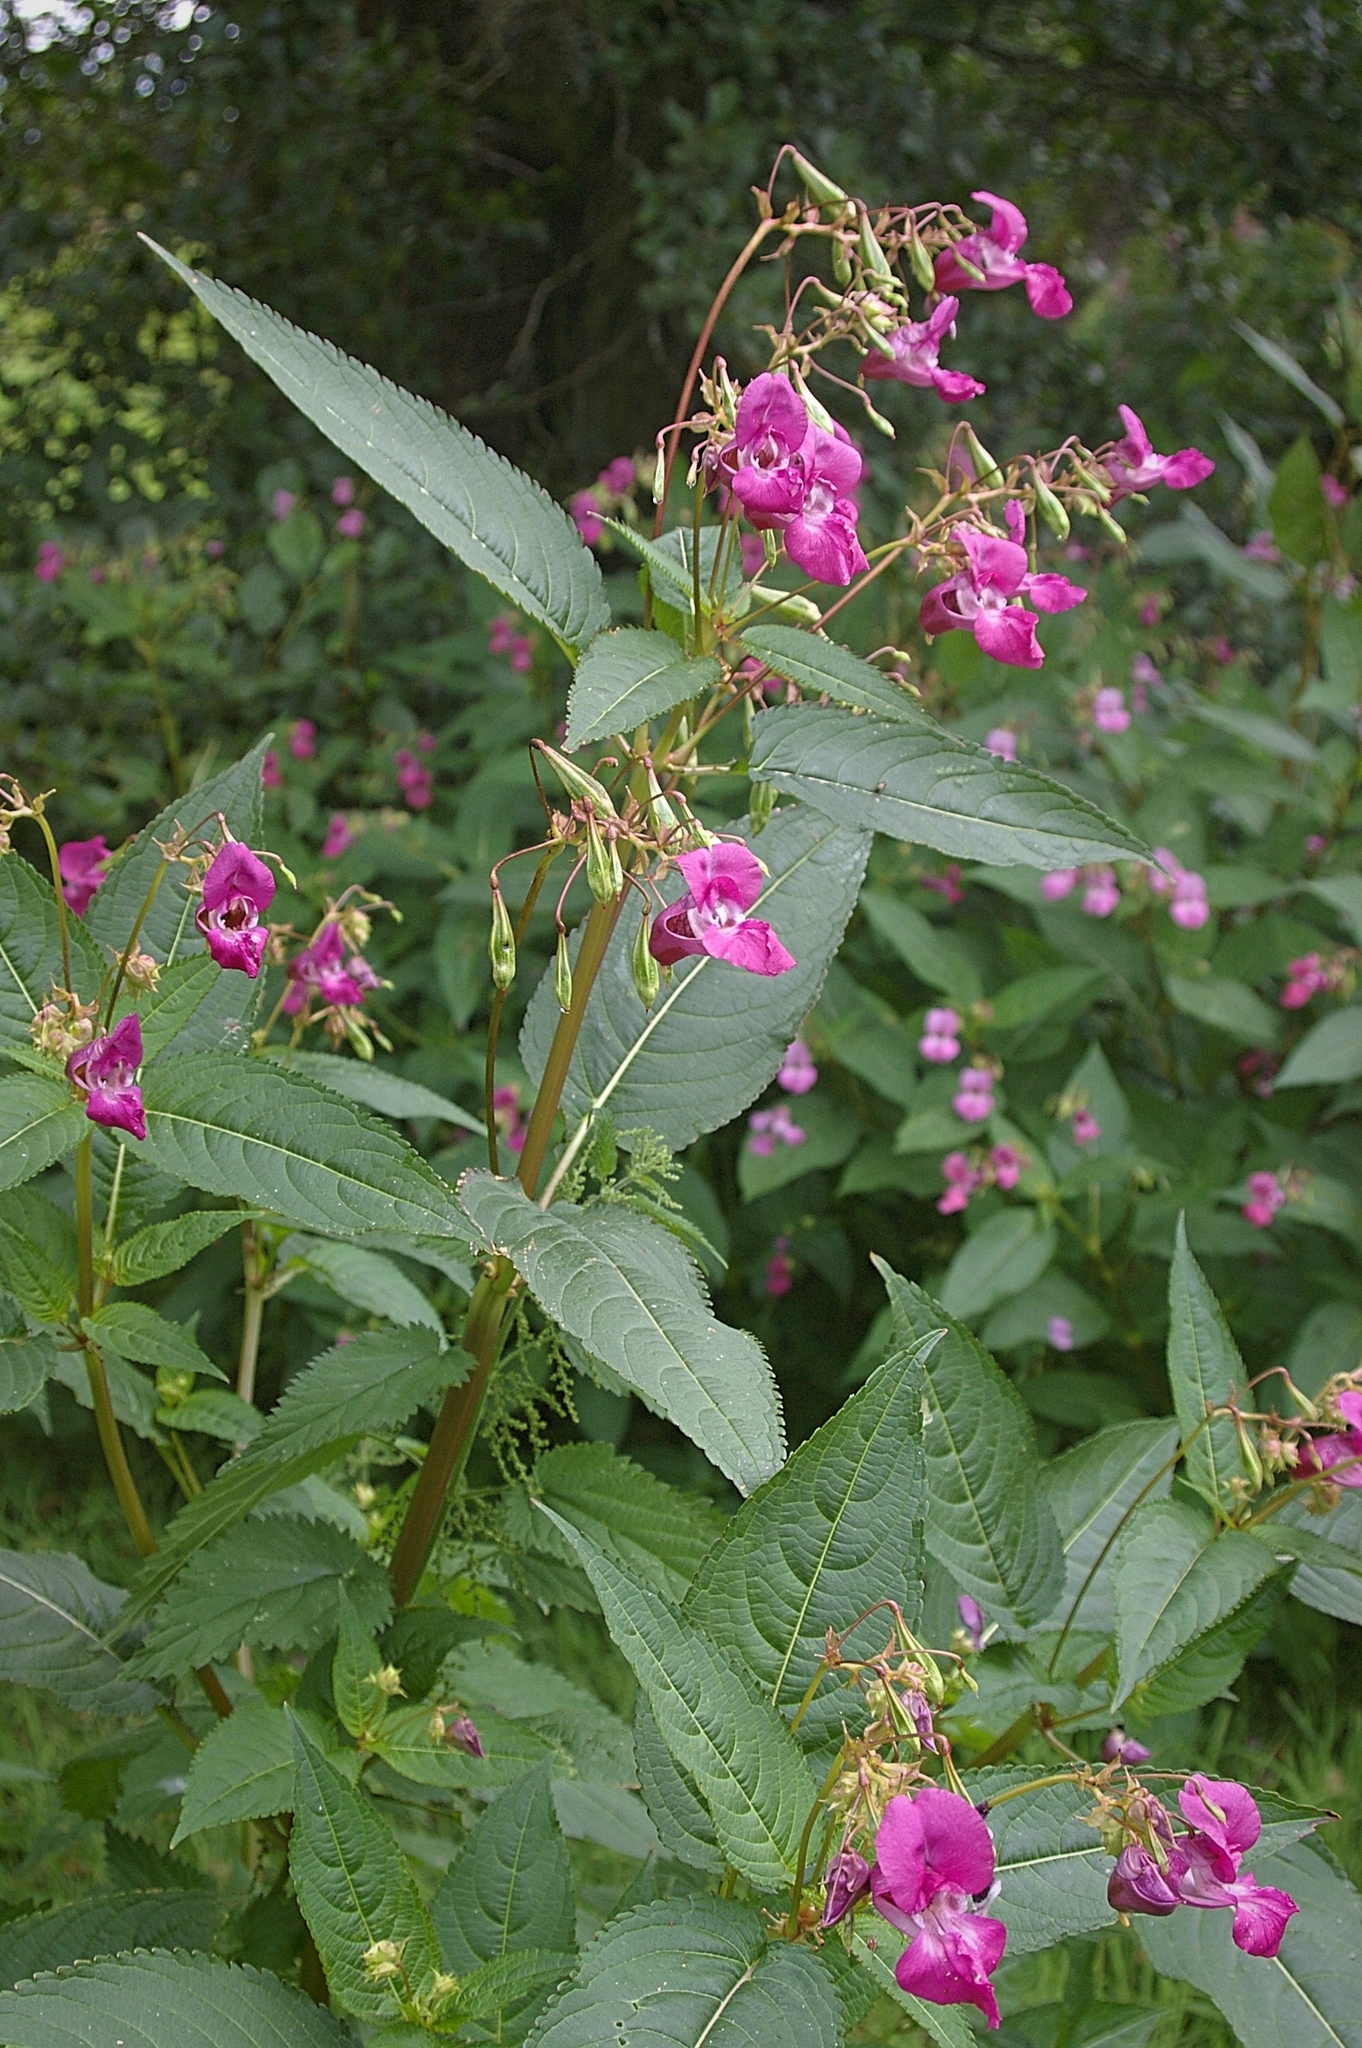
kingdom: Plantae
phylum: Tracheophyta
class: Magnoliopsida
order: Ericales
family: Balsaminaceae
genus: Impatiens
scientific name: Impatiens glandulifera
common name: Himalayan balsam
